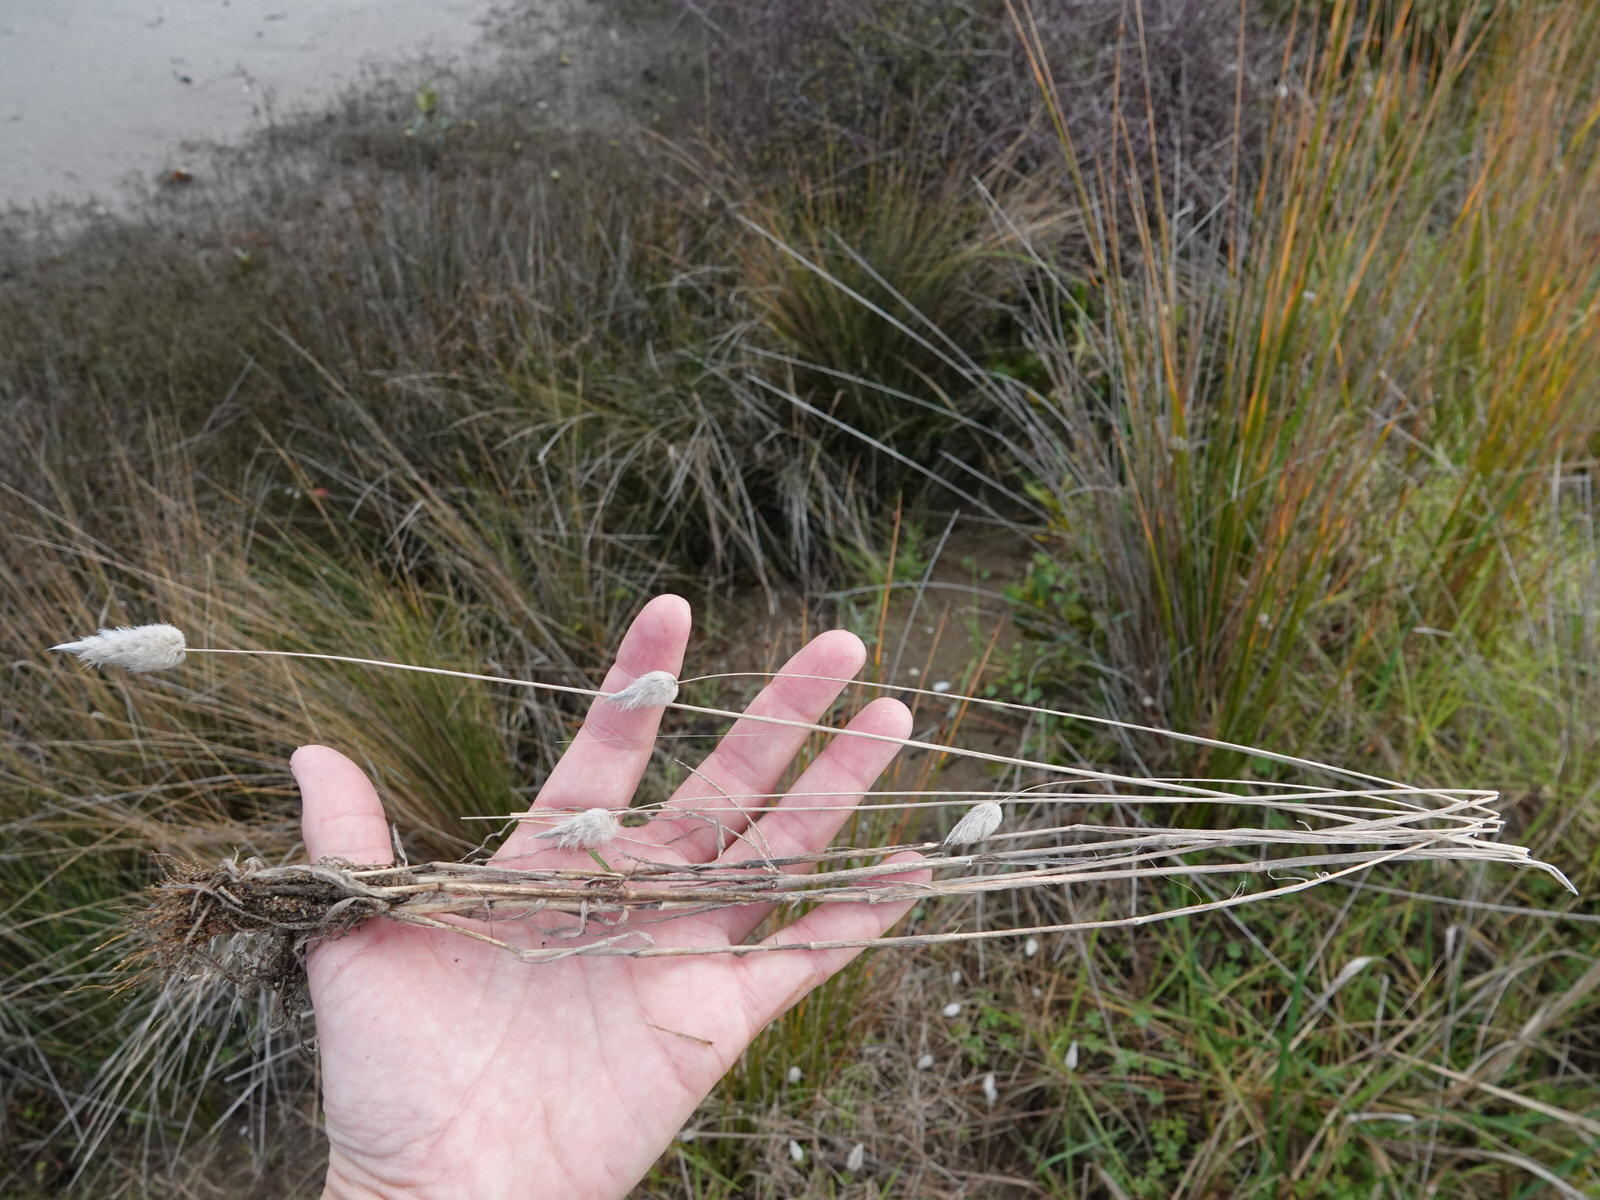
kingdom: Plantae
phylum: Tracheophyta
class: Liliopsida
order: Poales
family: Poaceae
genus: Lagurus
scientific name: Lagurus ovatus
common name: Hare's-tail
